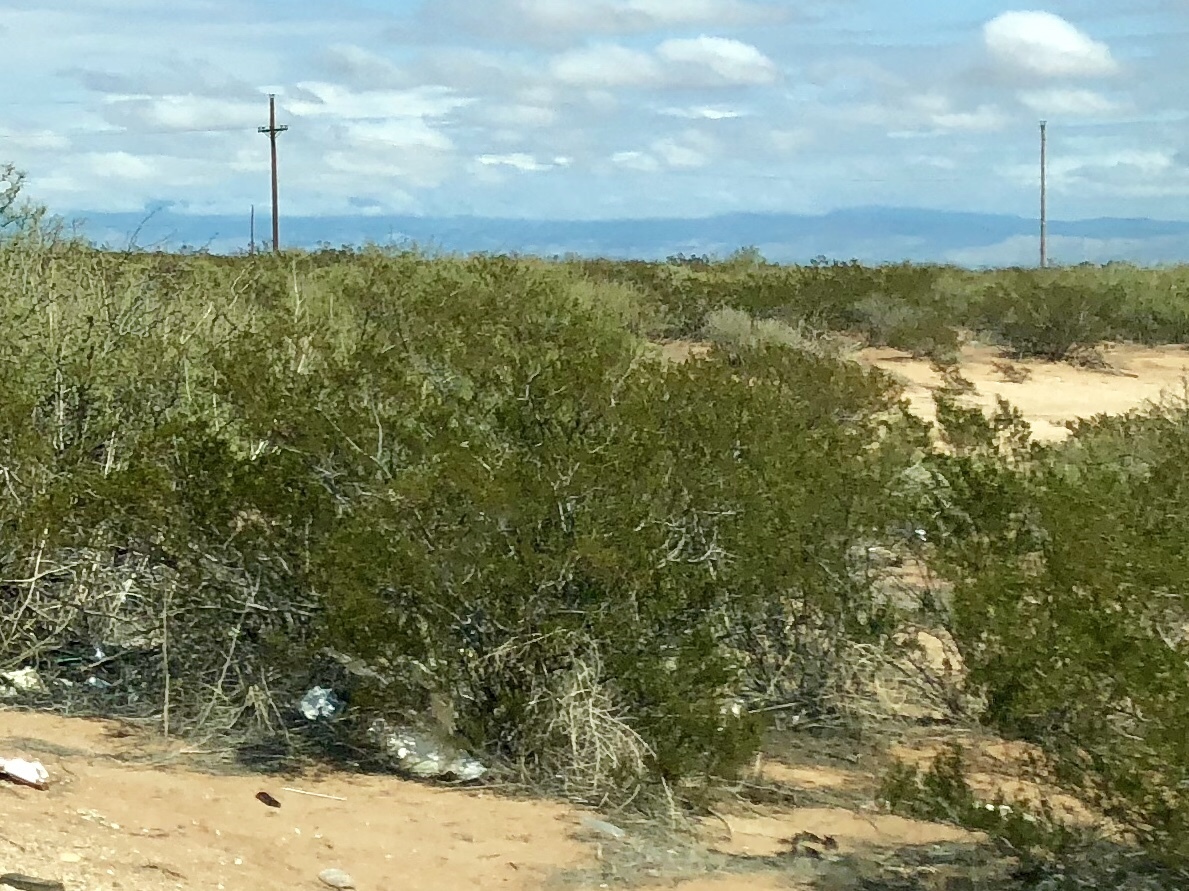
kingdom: Plantae
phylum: Tracheophyta
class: Magnoliopsida
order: Zygophyllales
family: Zygophyllaceae
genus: Larrea
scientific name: Larrea tridentata
